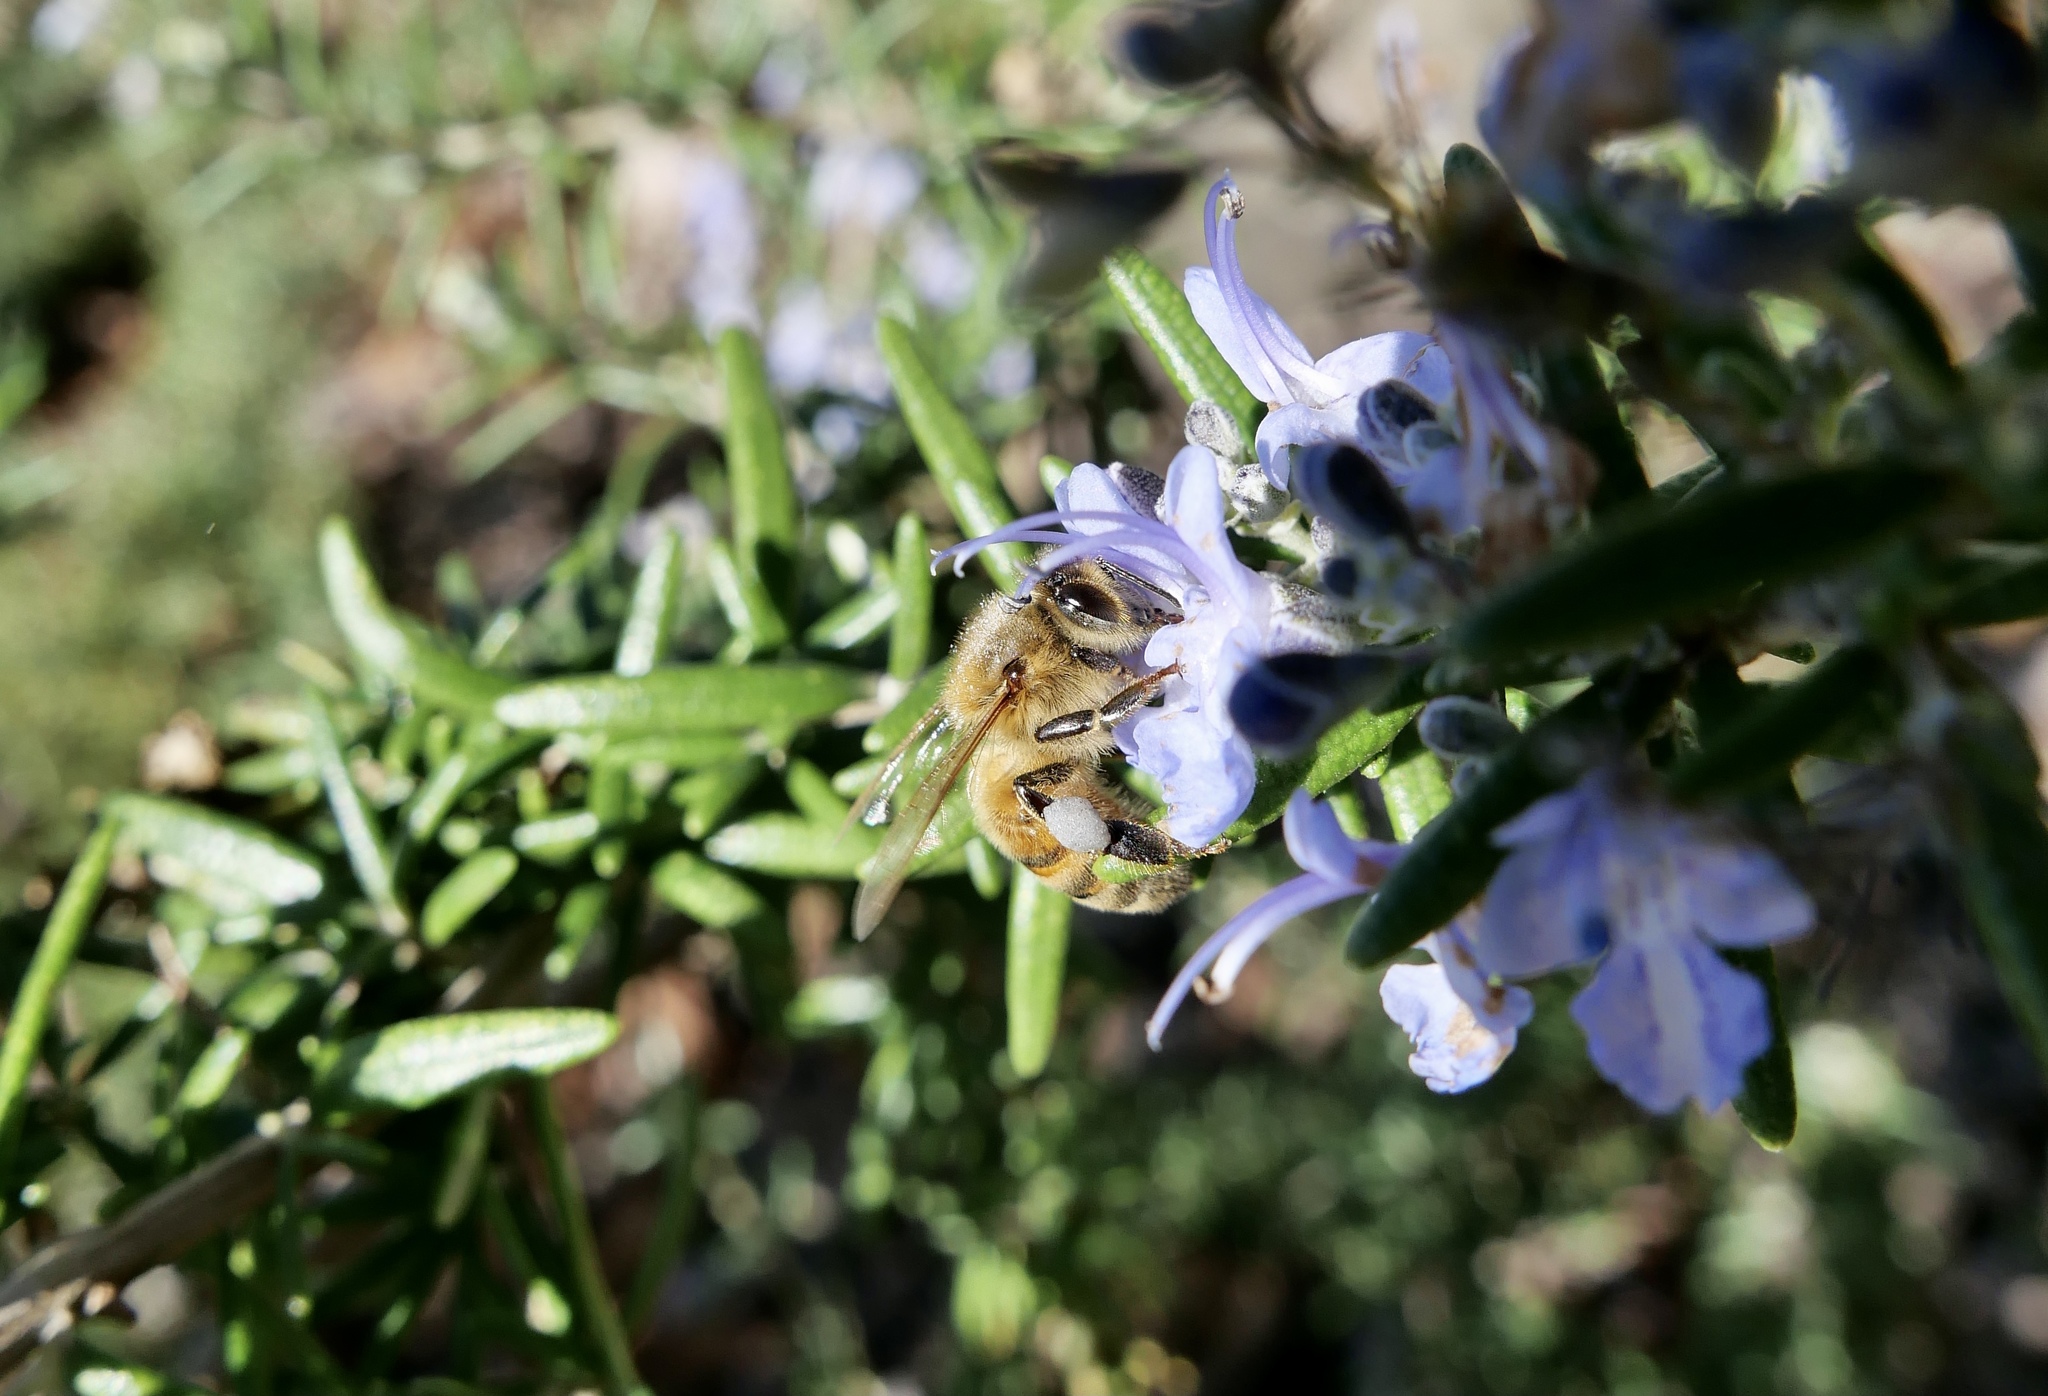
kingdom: Animalia
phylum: Arthropoda
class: Insecta
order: Hymenoptera
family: Apidae
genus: Apis
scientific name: Apis mellifera
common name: Honey bee
